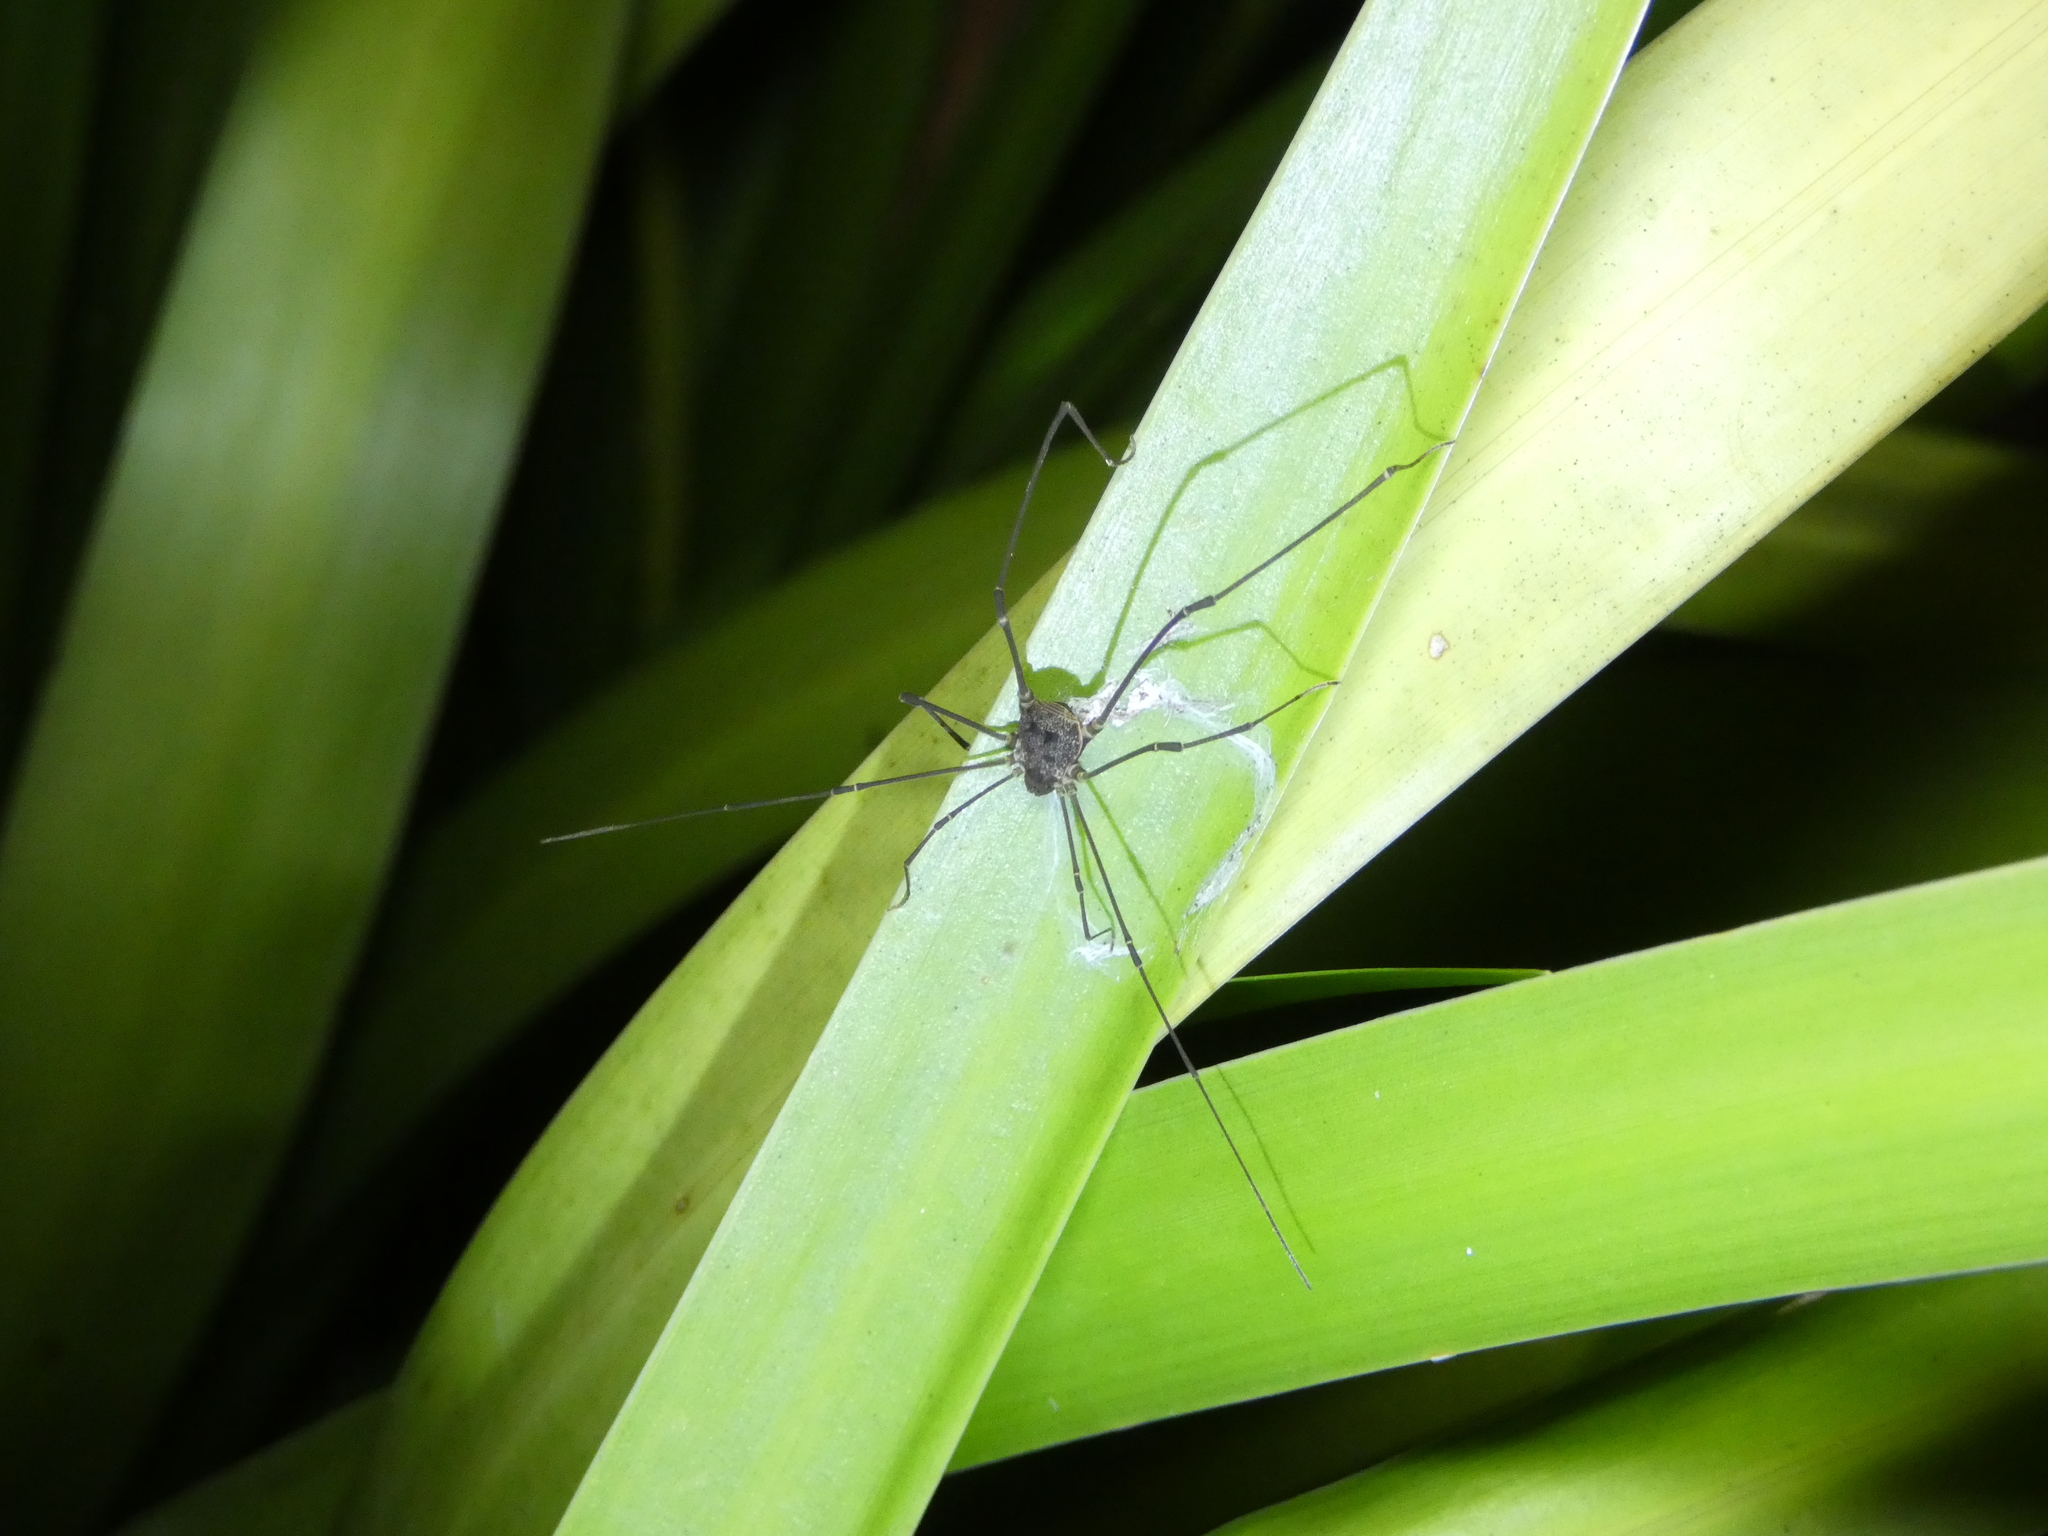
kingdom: Animalia
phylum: Arthropoda
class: Arachnida
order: Opiliones
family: Cosmetidae
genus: Gryne
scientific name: Gryne leprosa
